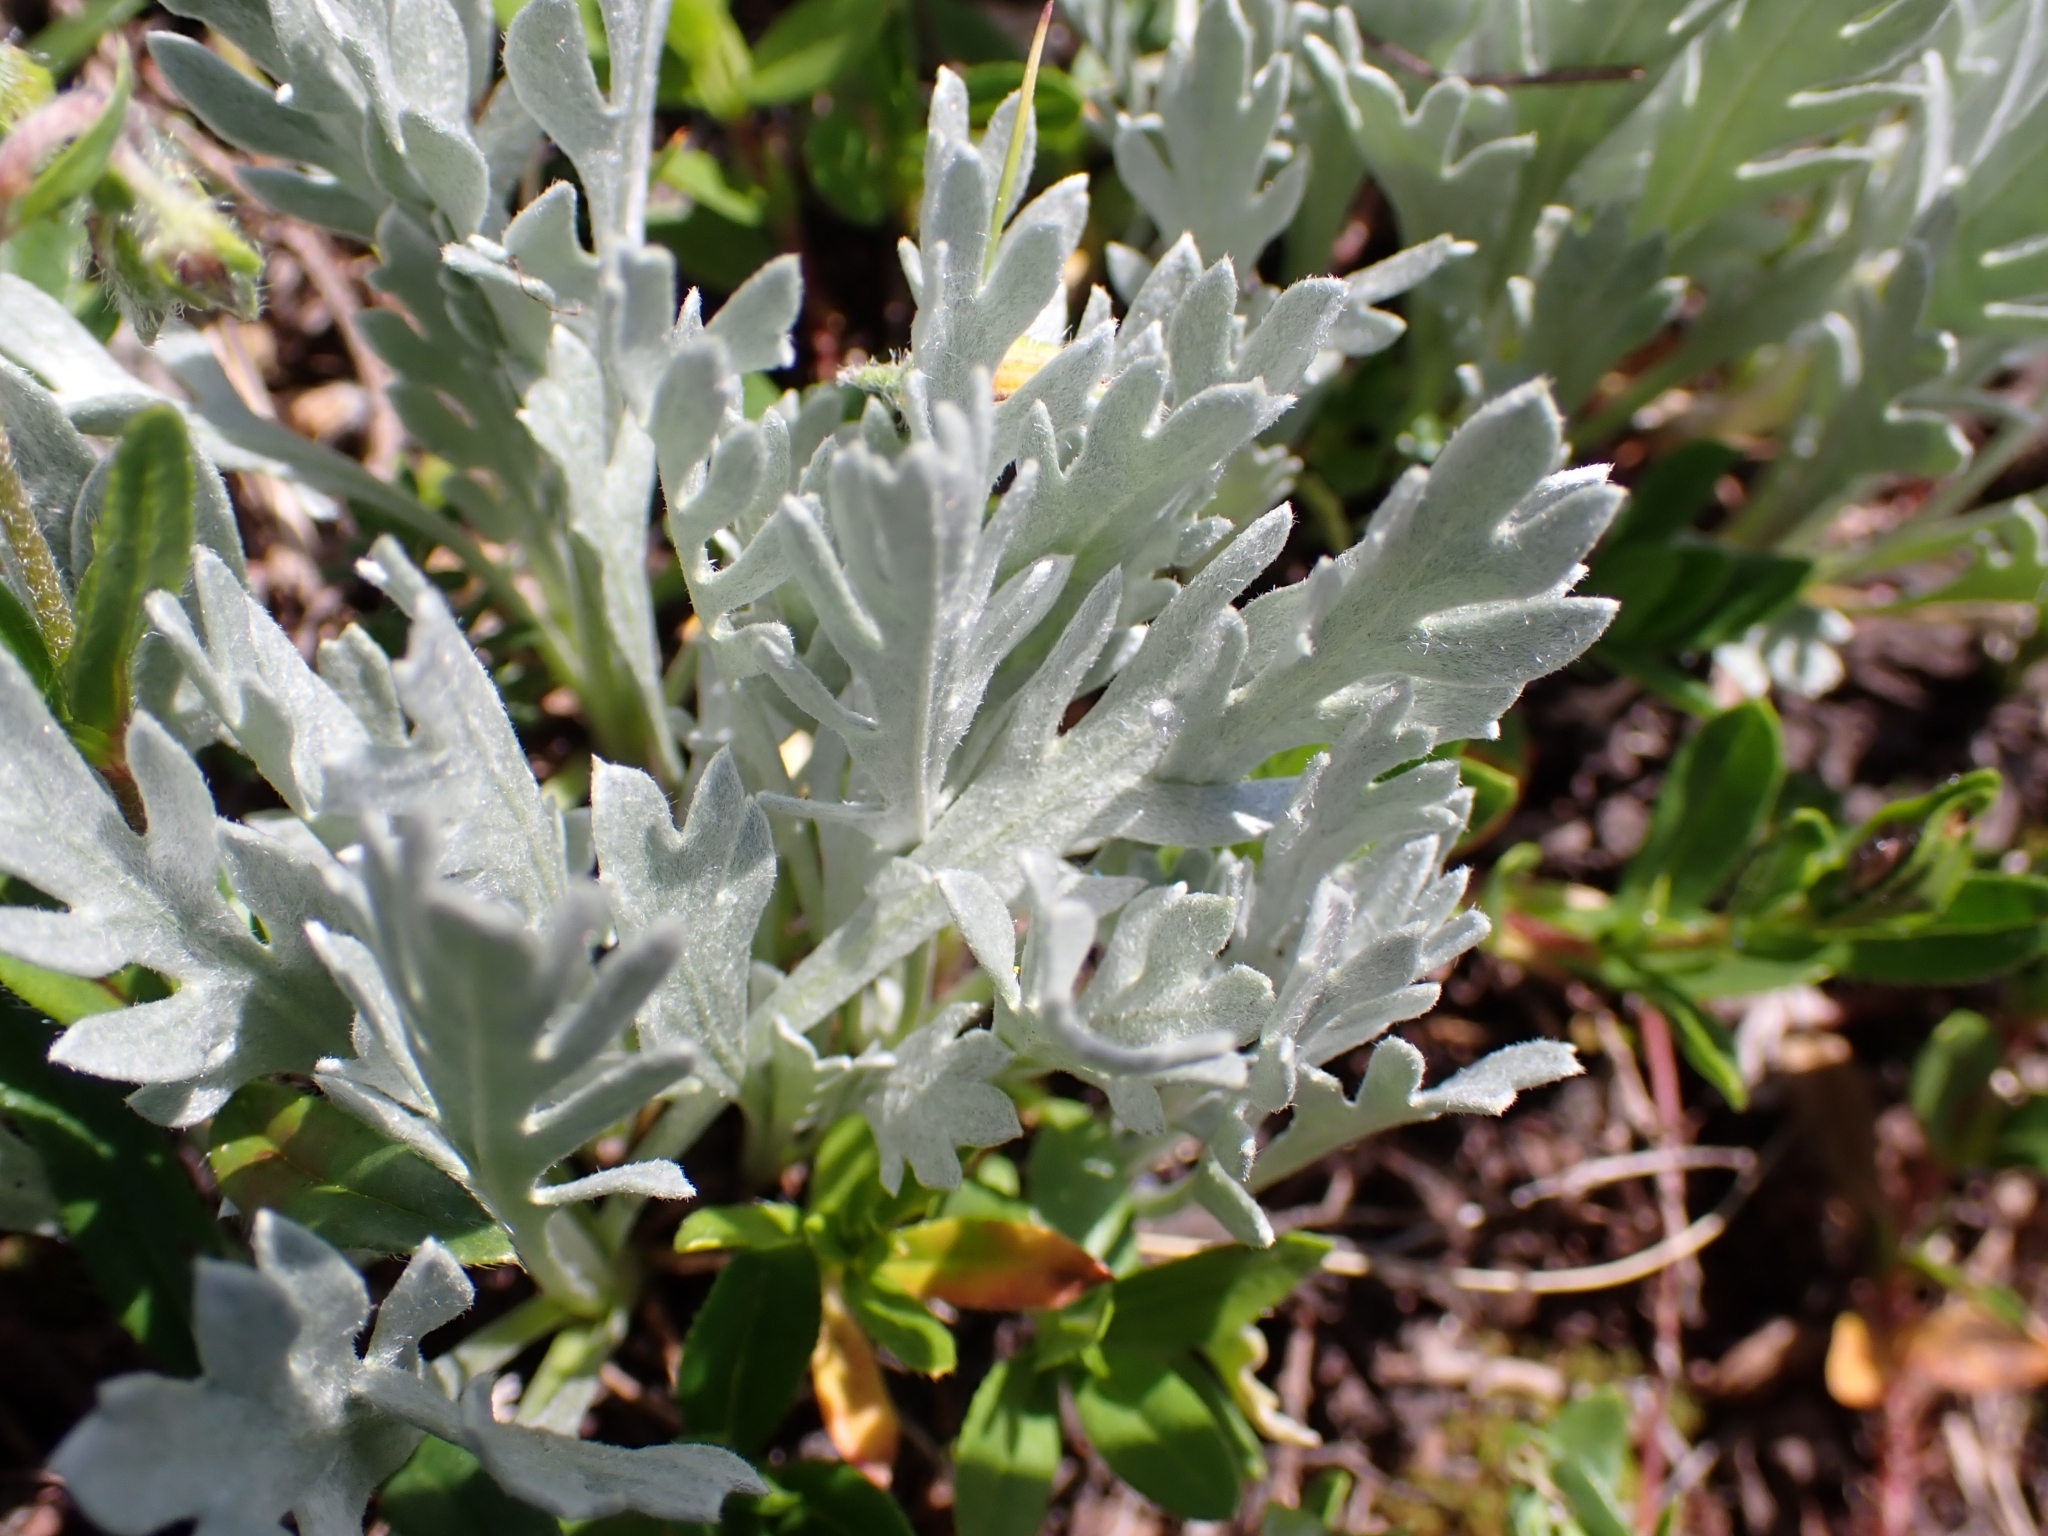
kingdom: Plantae
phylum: Tracheophyta
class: Magnoliopsida
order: Asterales
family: Asteraceae
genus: Achillea
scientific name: Achillea clavennae
